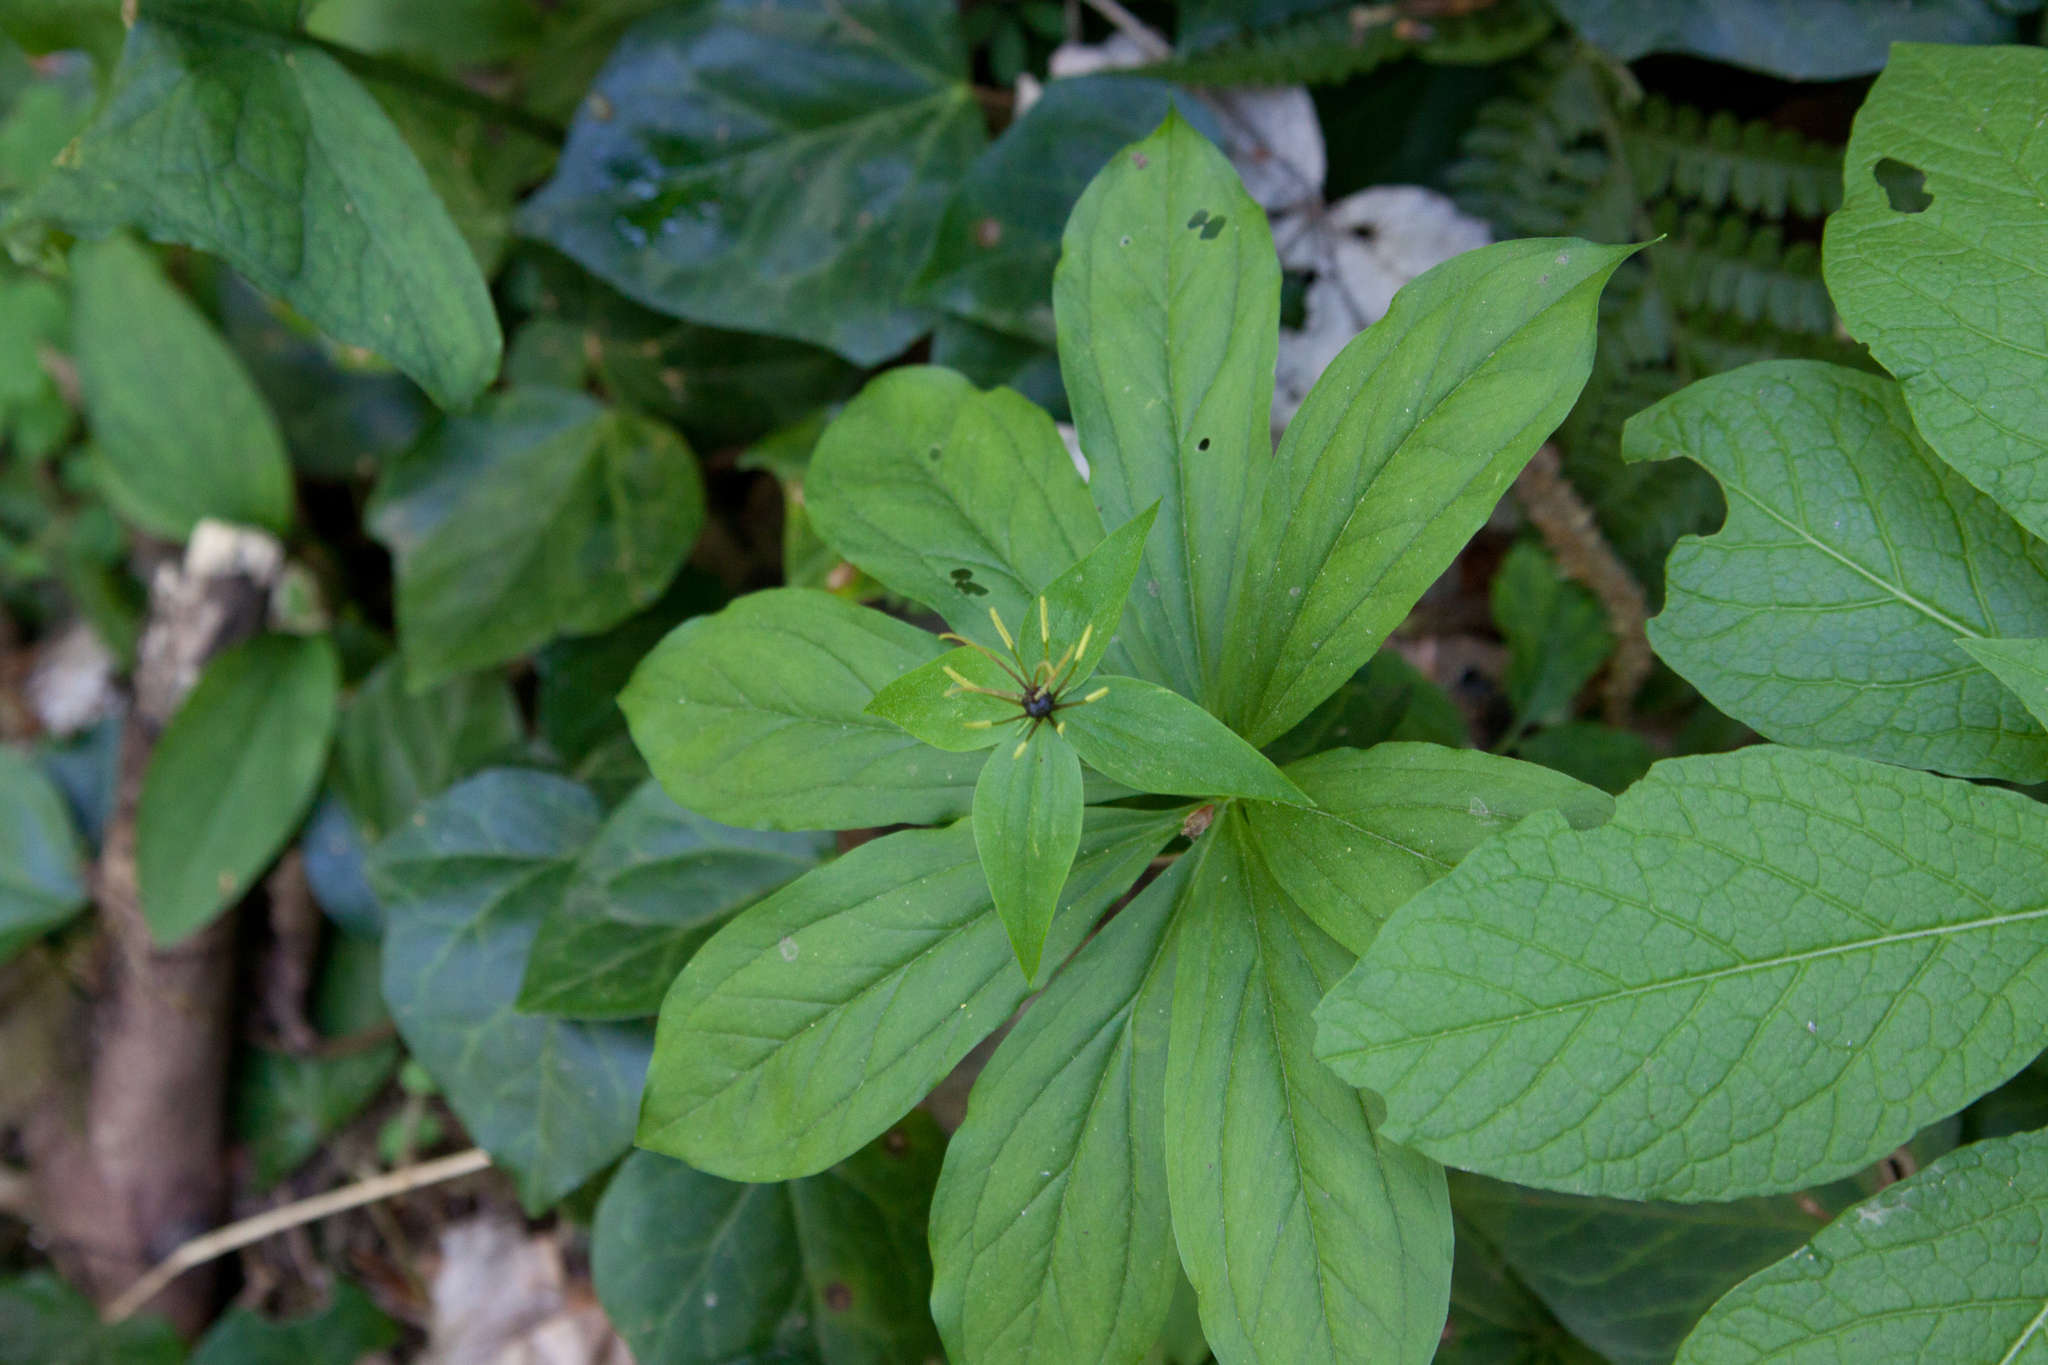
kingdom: Plantae
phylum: Tracheophyta
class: Liliopsida
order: Liliales
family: Melanthiaceae
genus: Paris
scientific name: Paris incompleta
